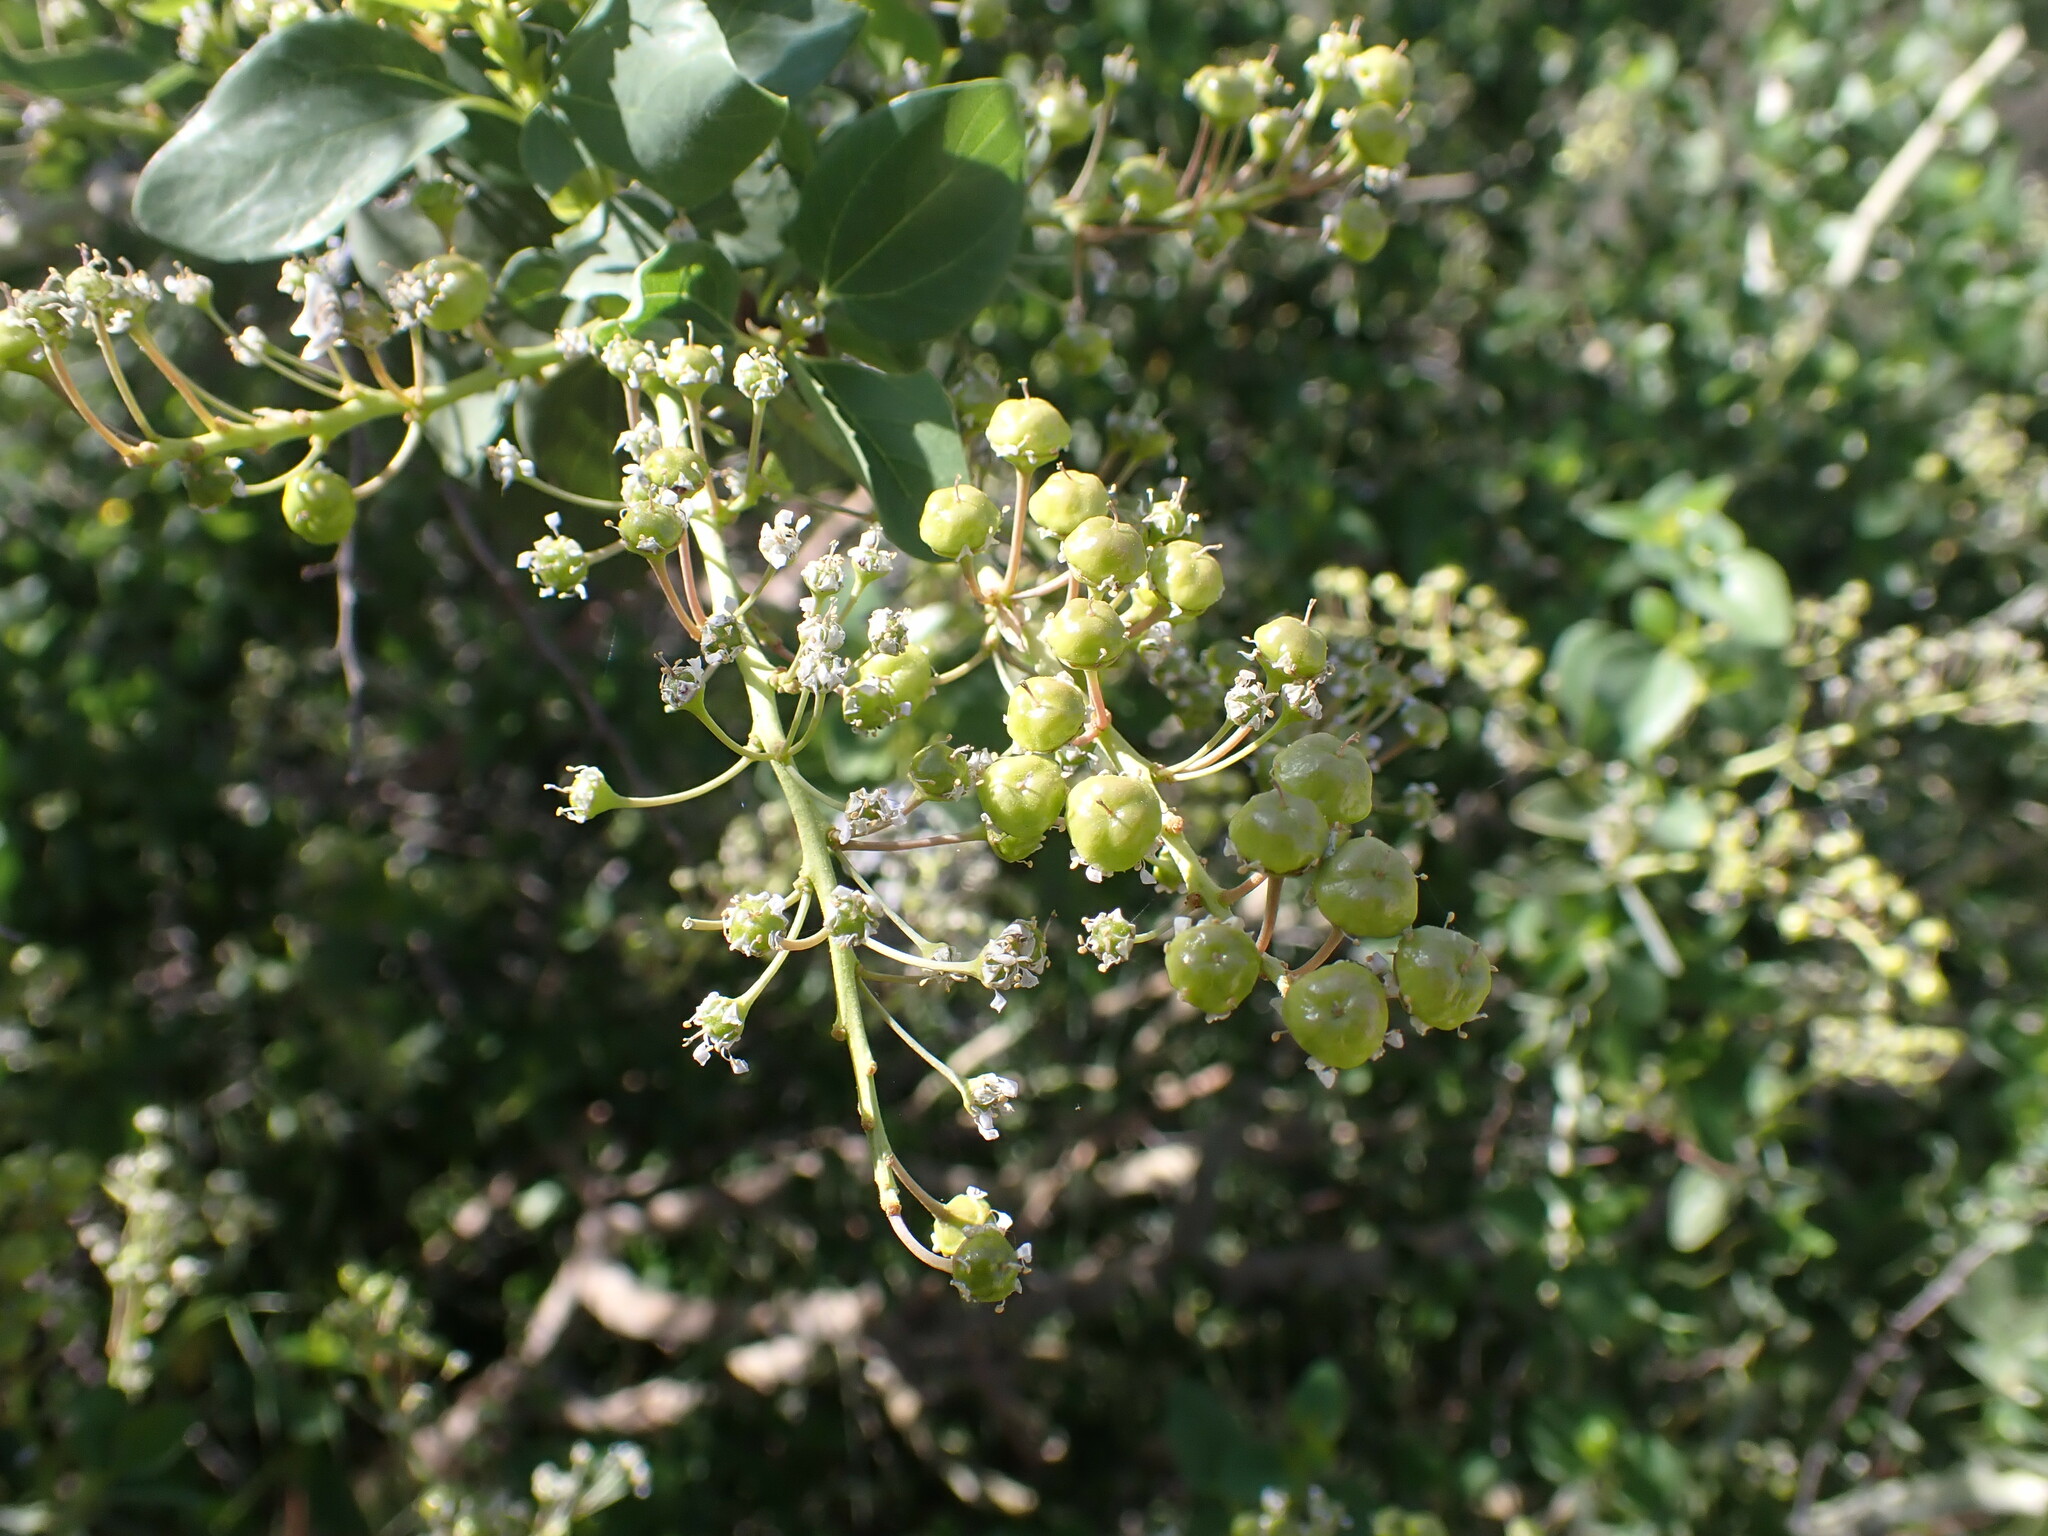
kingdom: Plantae
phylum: Tracheophyta
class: Magnoliopsida
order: Rosales
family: Rhamnaceae
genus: Ceanothus
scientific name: Ceanothus leucodermis
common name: Chaparral whitethorn
